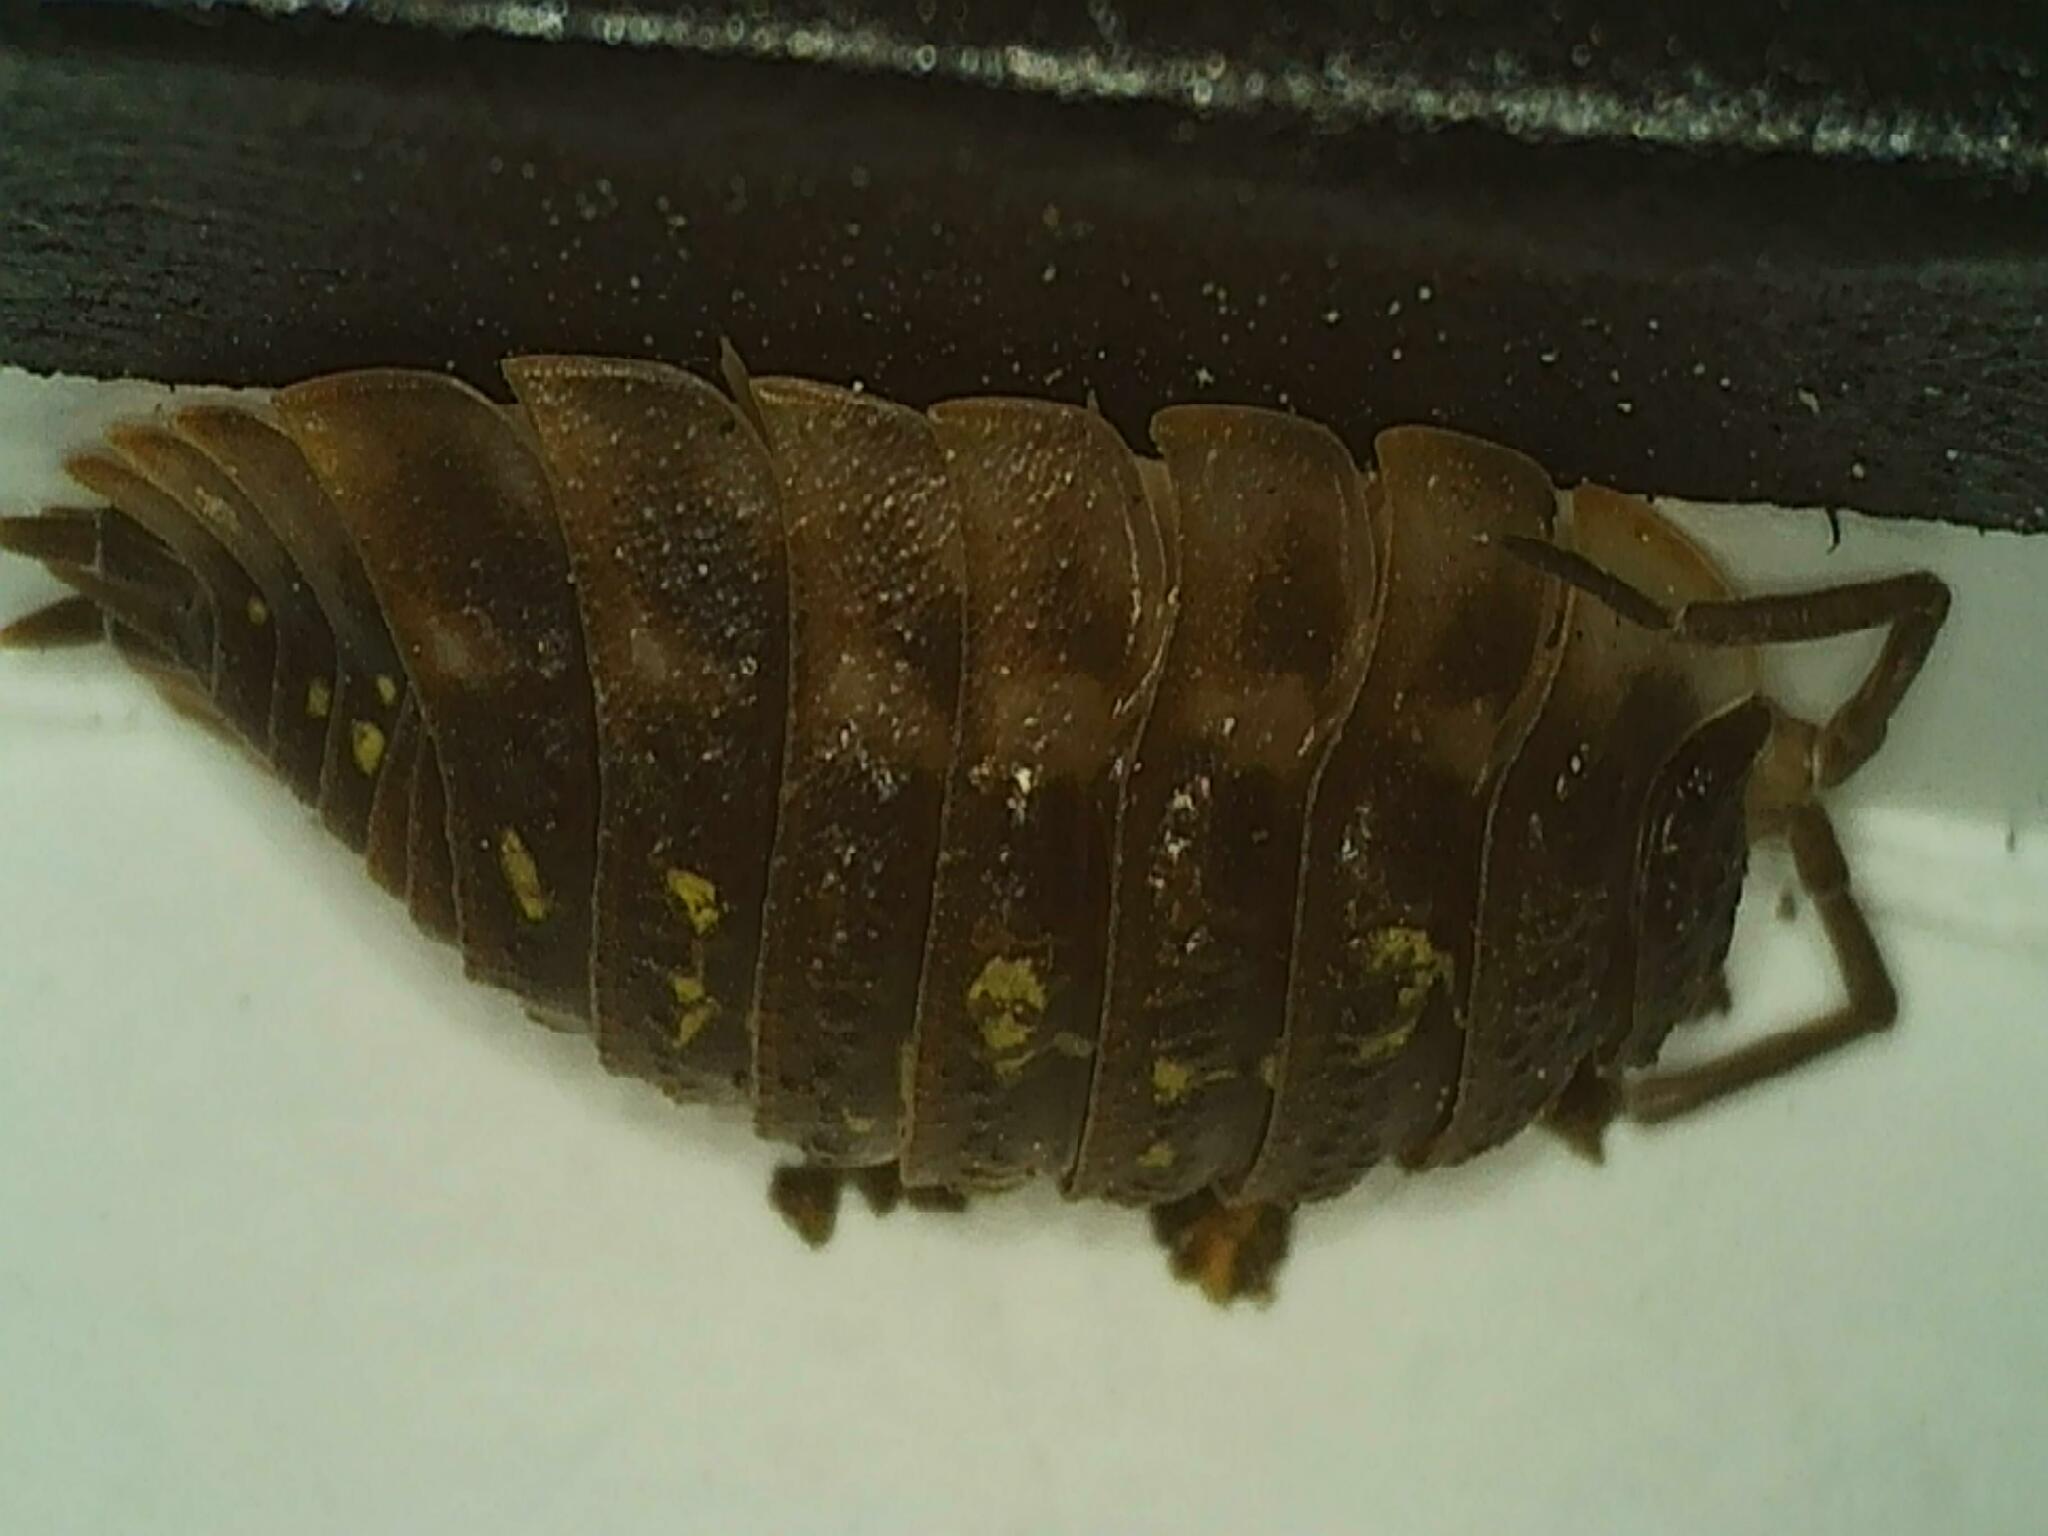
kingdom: Animalia
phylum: Arthropoda
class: Malacostraca
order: Isopoda
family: Oniscidae
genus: Oniscus
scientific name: Oniscus asellus
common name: Common shiny woodlouse
